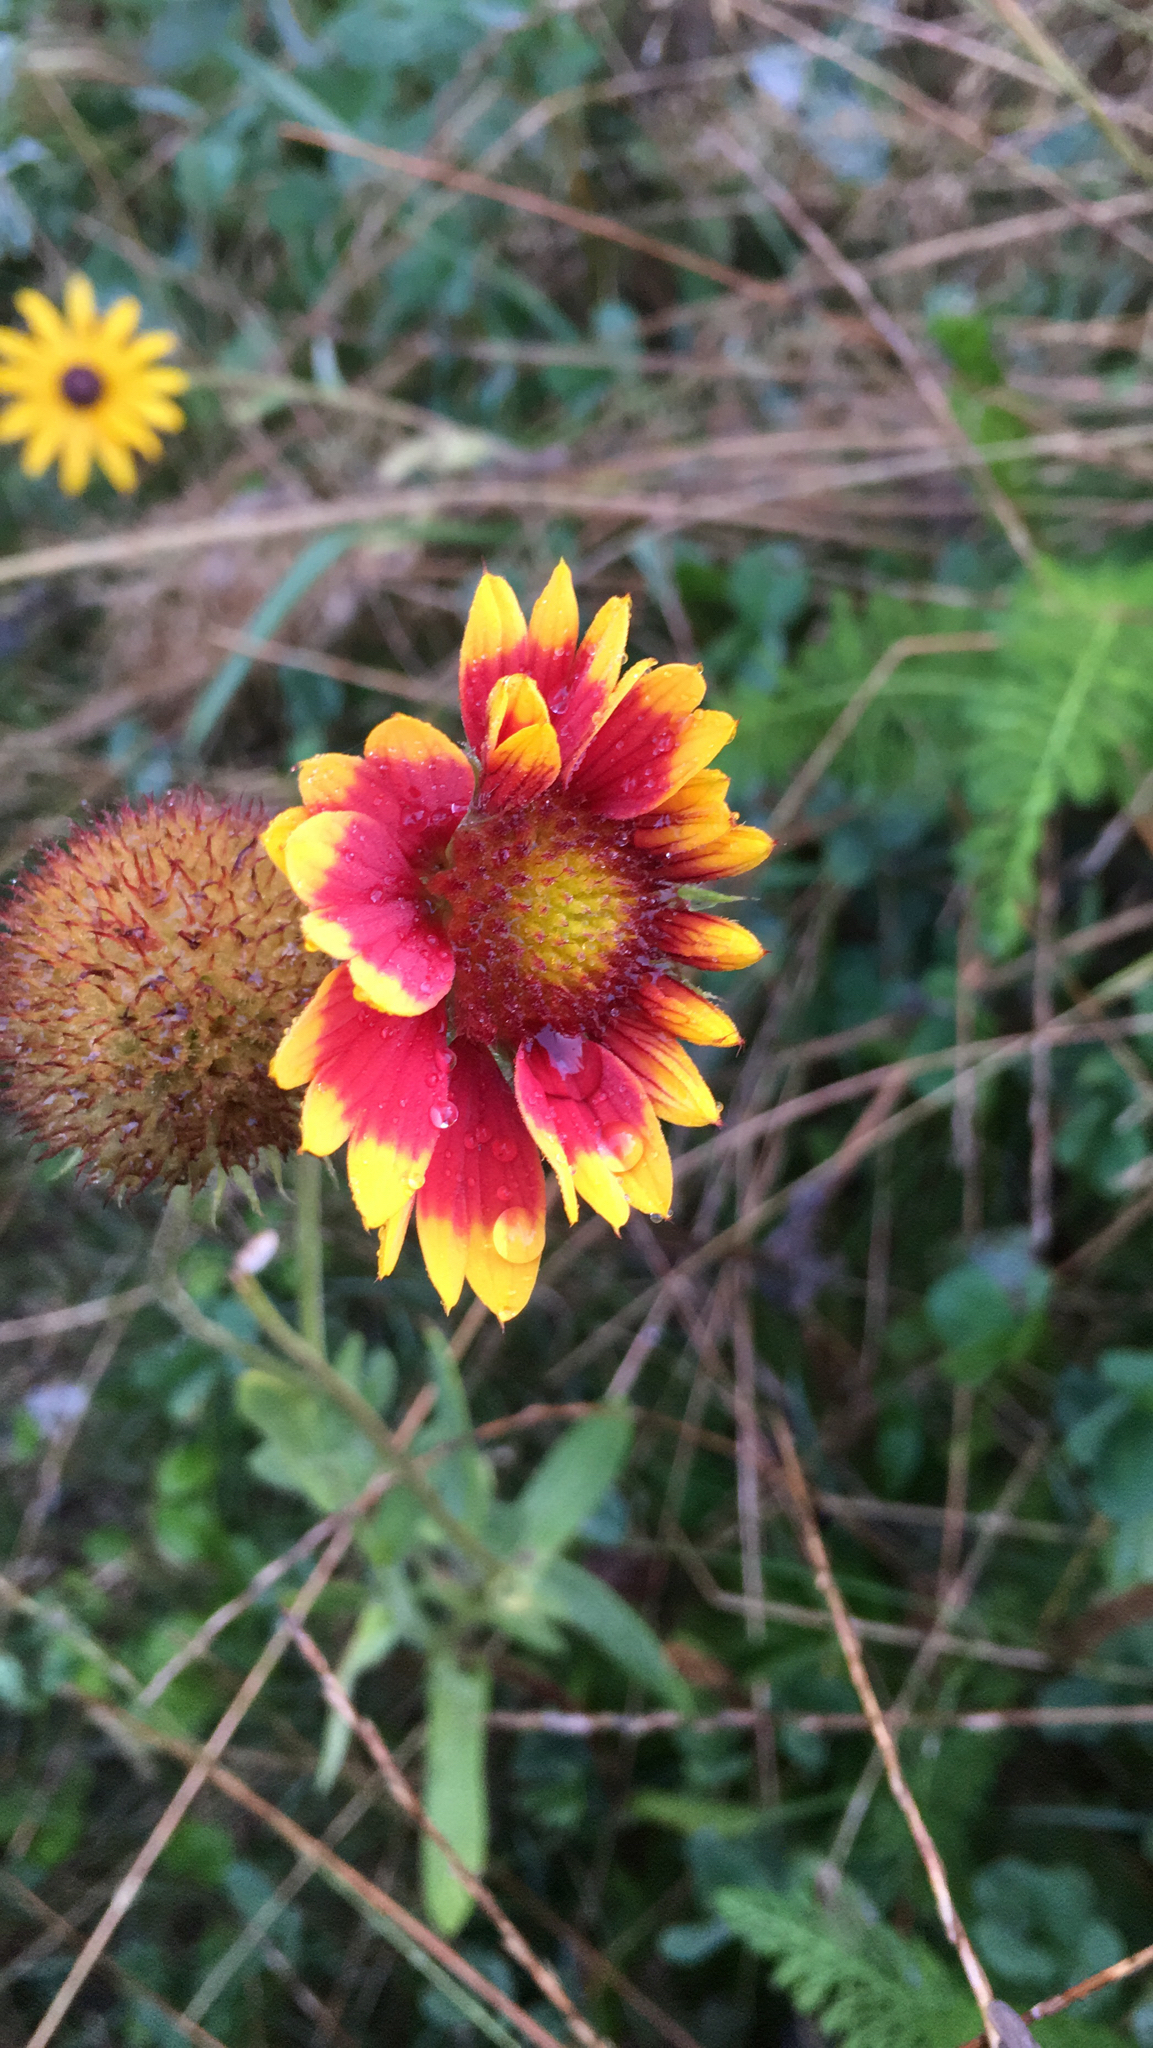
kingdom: Plantae
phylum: Tracheophyta
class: Magnoliopsida
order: Asterales
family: Asteraceae
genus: Gaillardia
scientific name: Gaillardia pulchella
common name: Firewheel
